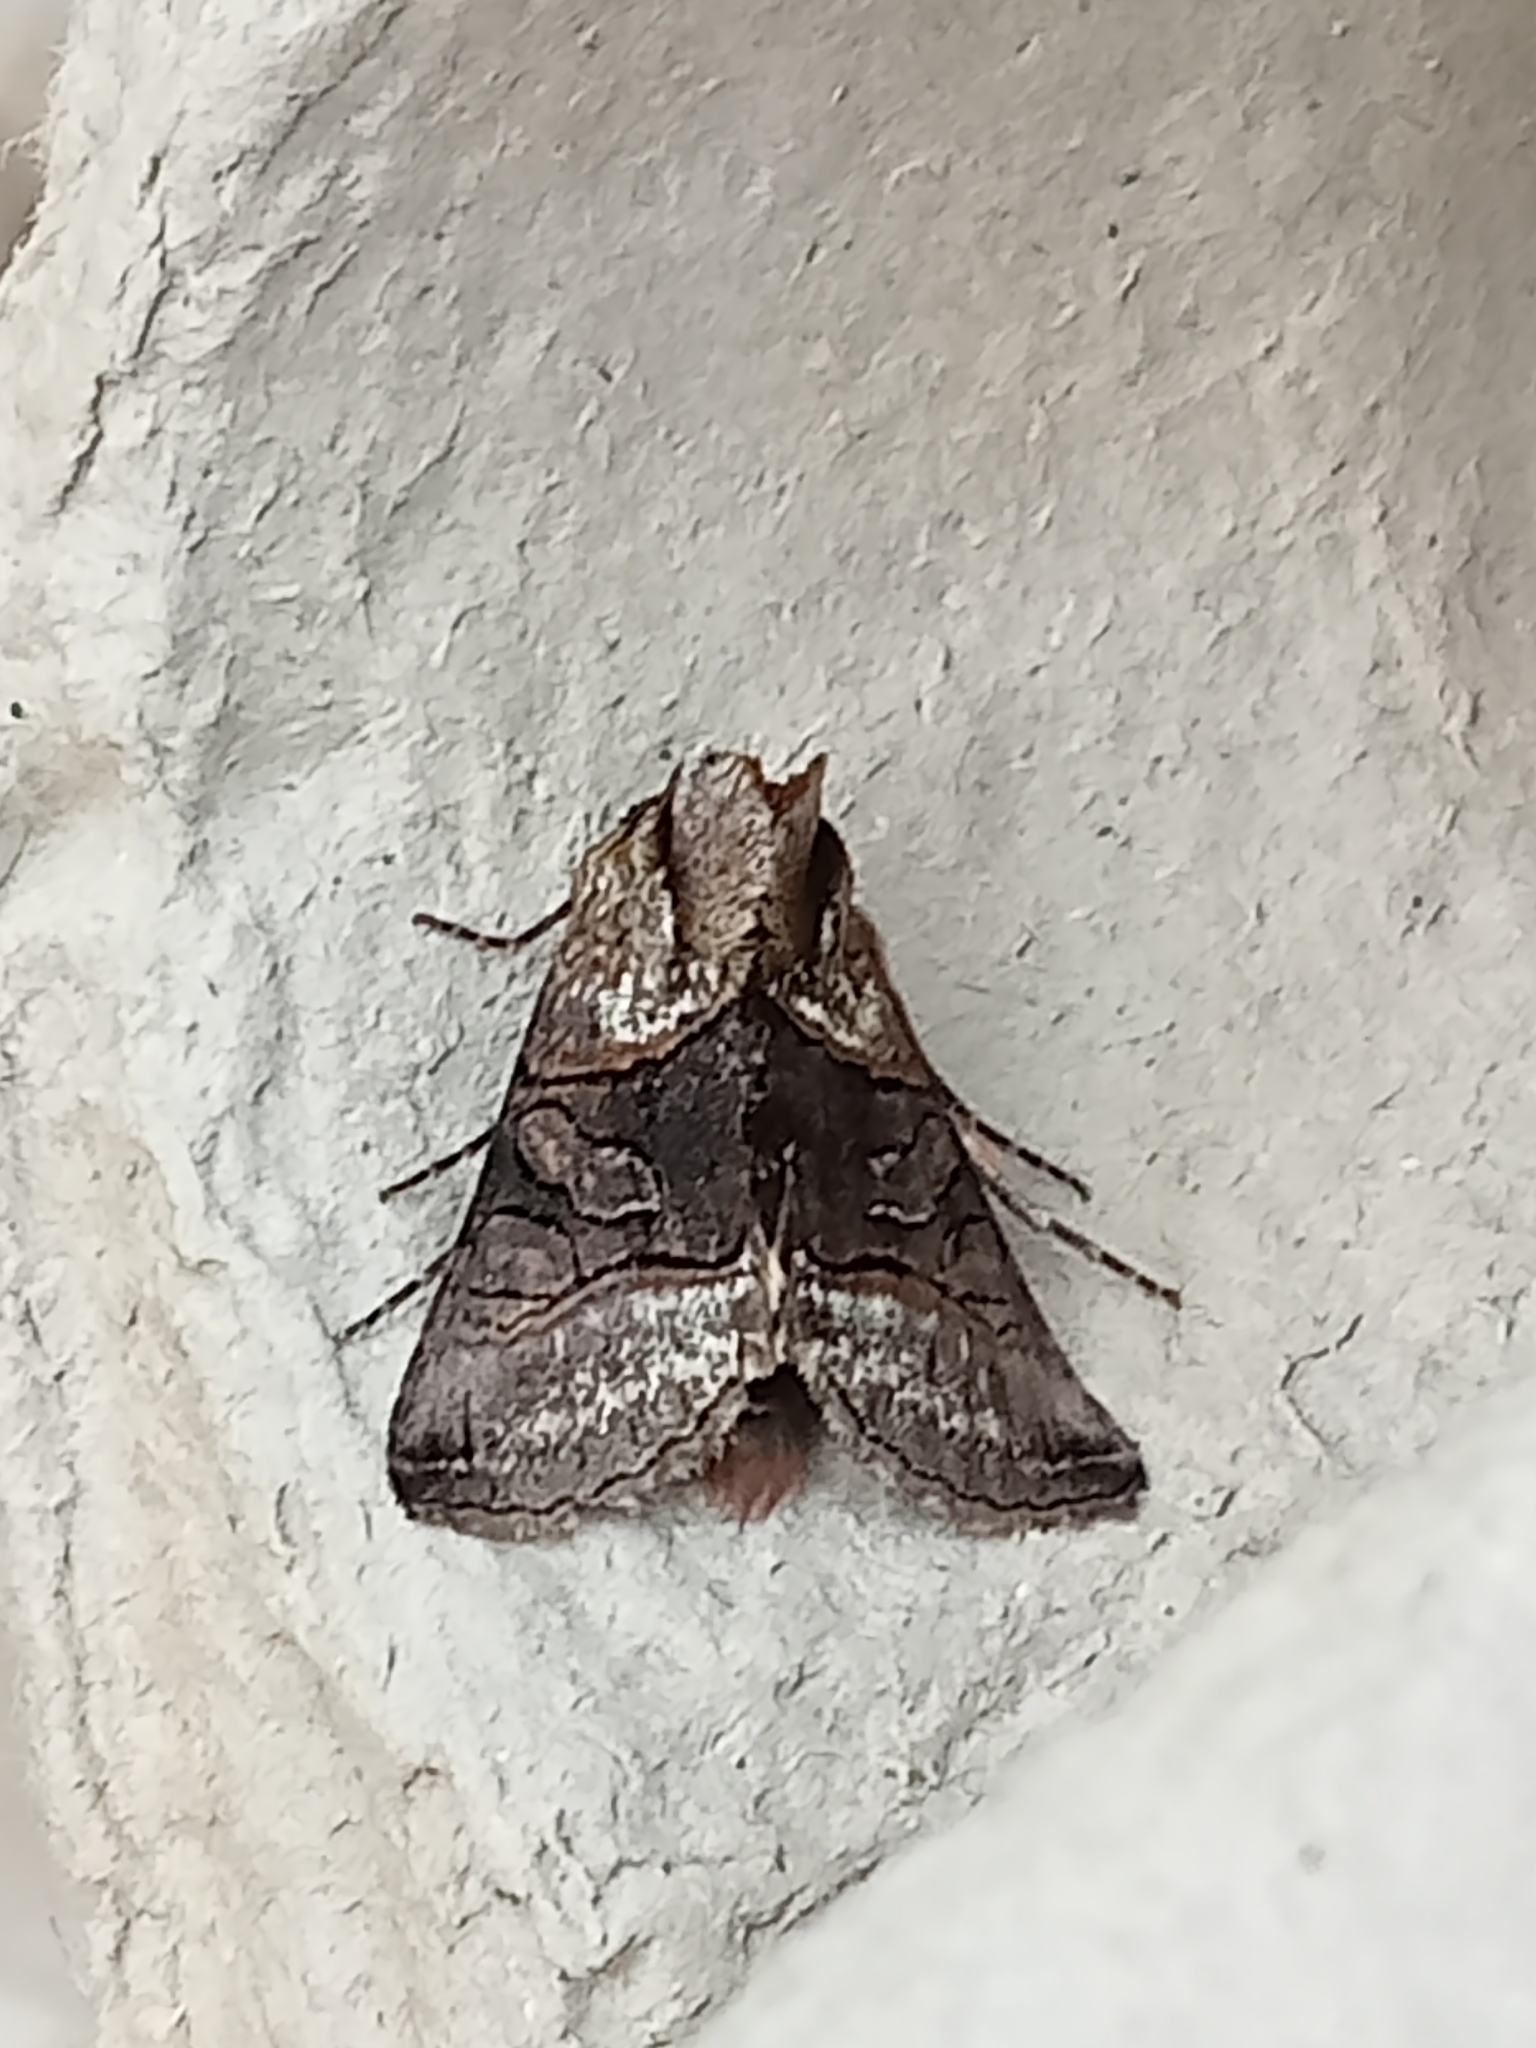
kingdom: Animalia
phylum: Arthropoda
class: Insecta
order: Lepidoptera
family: Noctuidae
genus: Abrostola
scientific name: Abrostola tripartita
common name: Spectacle
